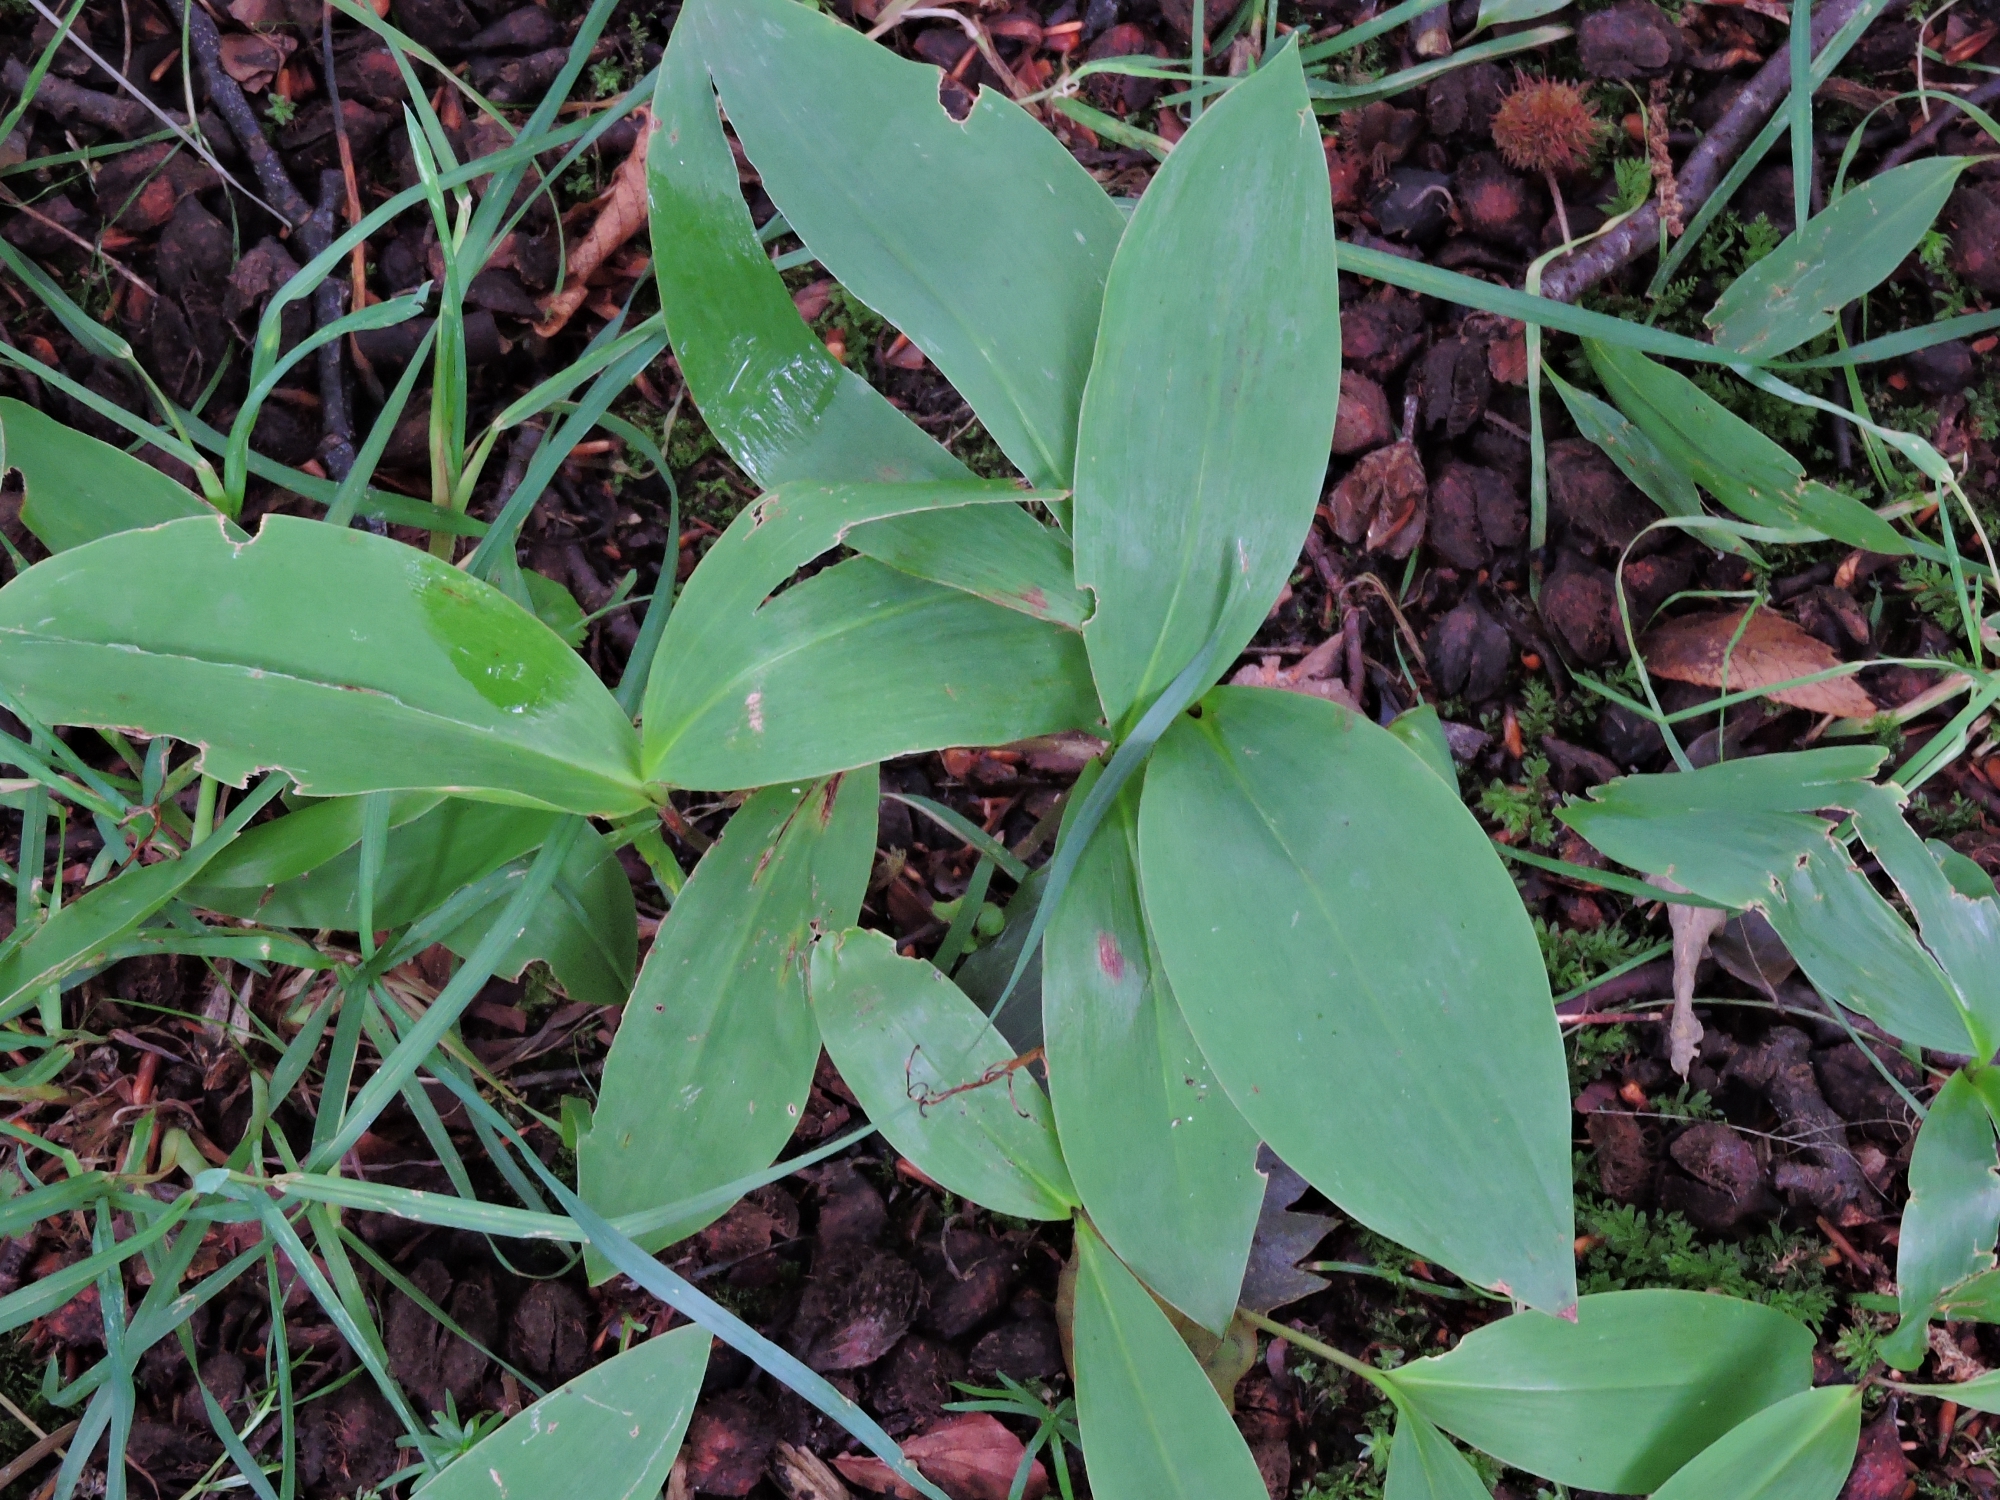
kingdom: Plantae
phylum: Tracheophyta
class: Liliopsida
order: Asparagales
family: Asparagaceae
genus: Convallaria
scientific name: Convallaria majalis
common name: Lily-of-the-valley
